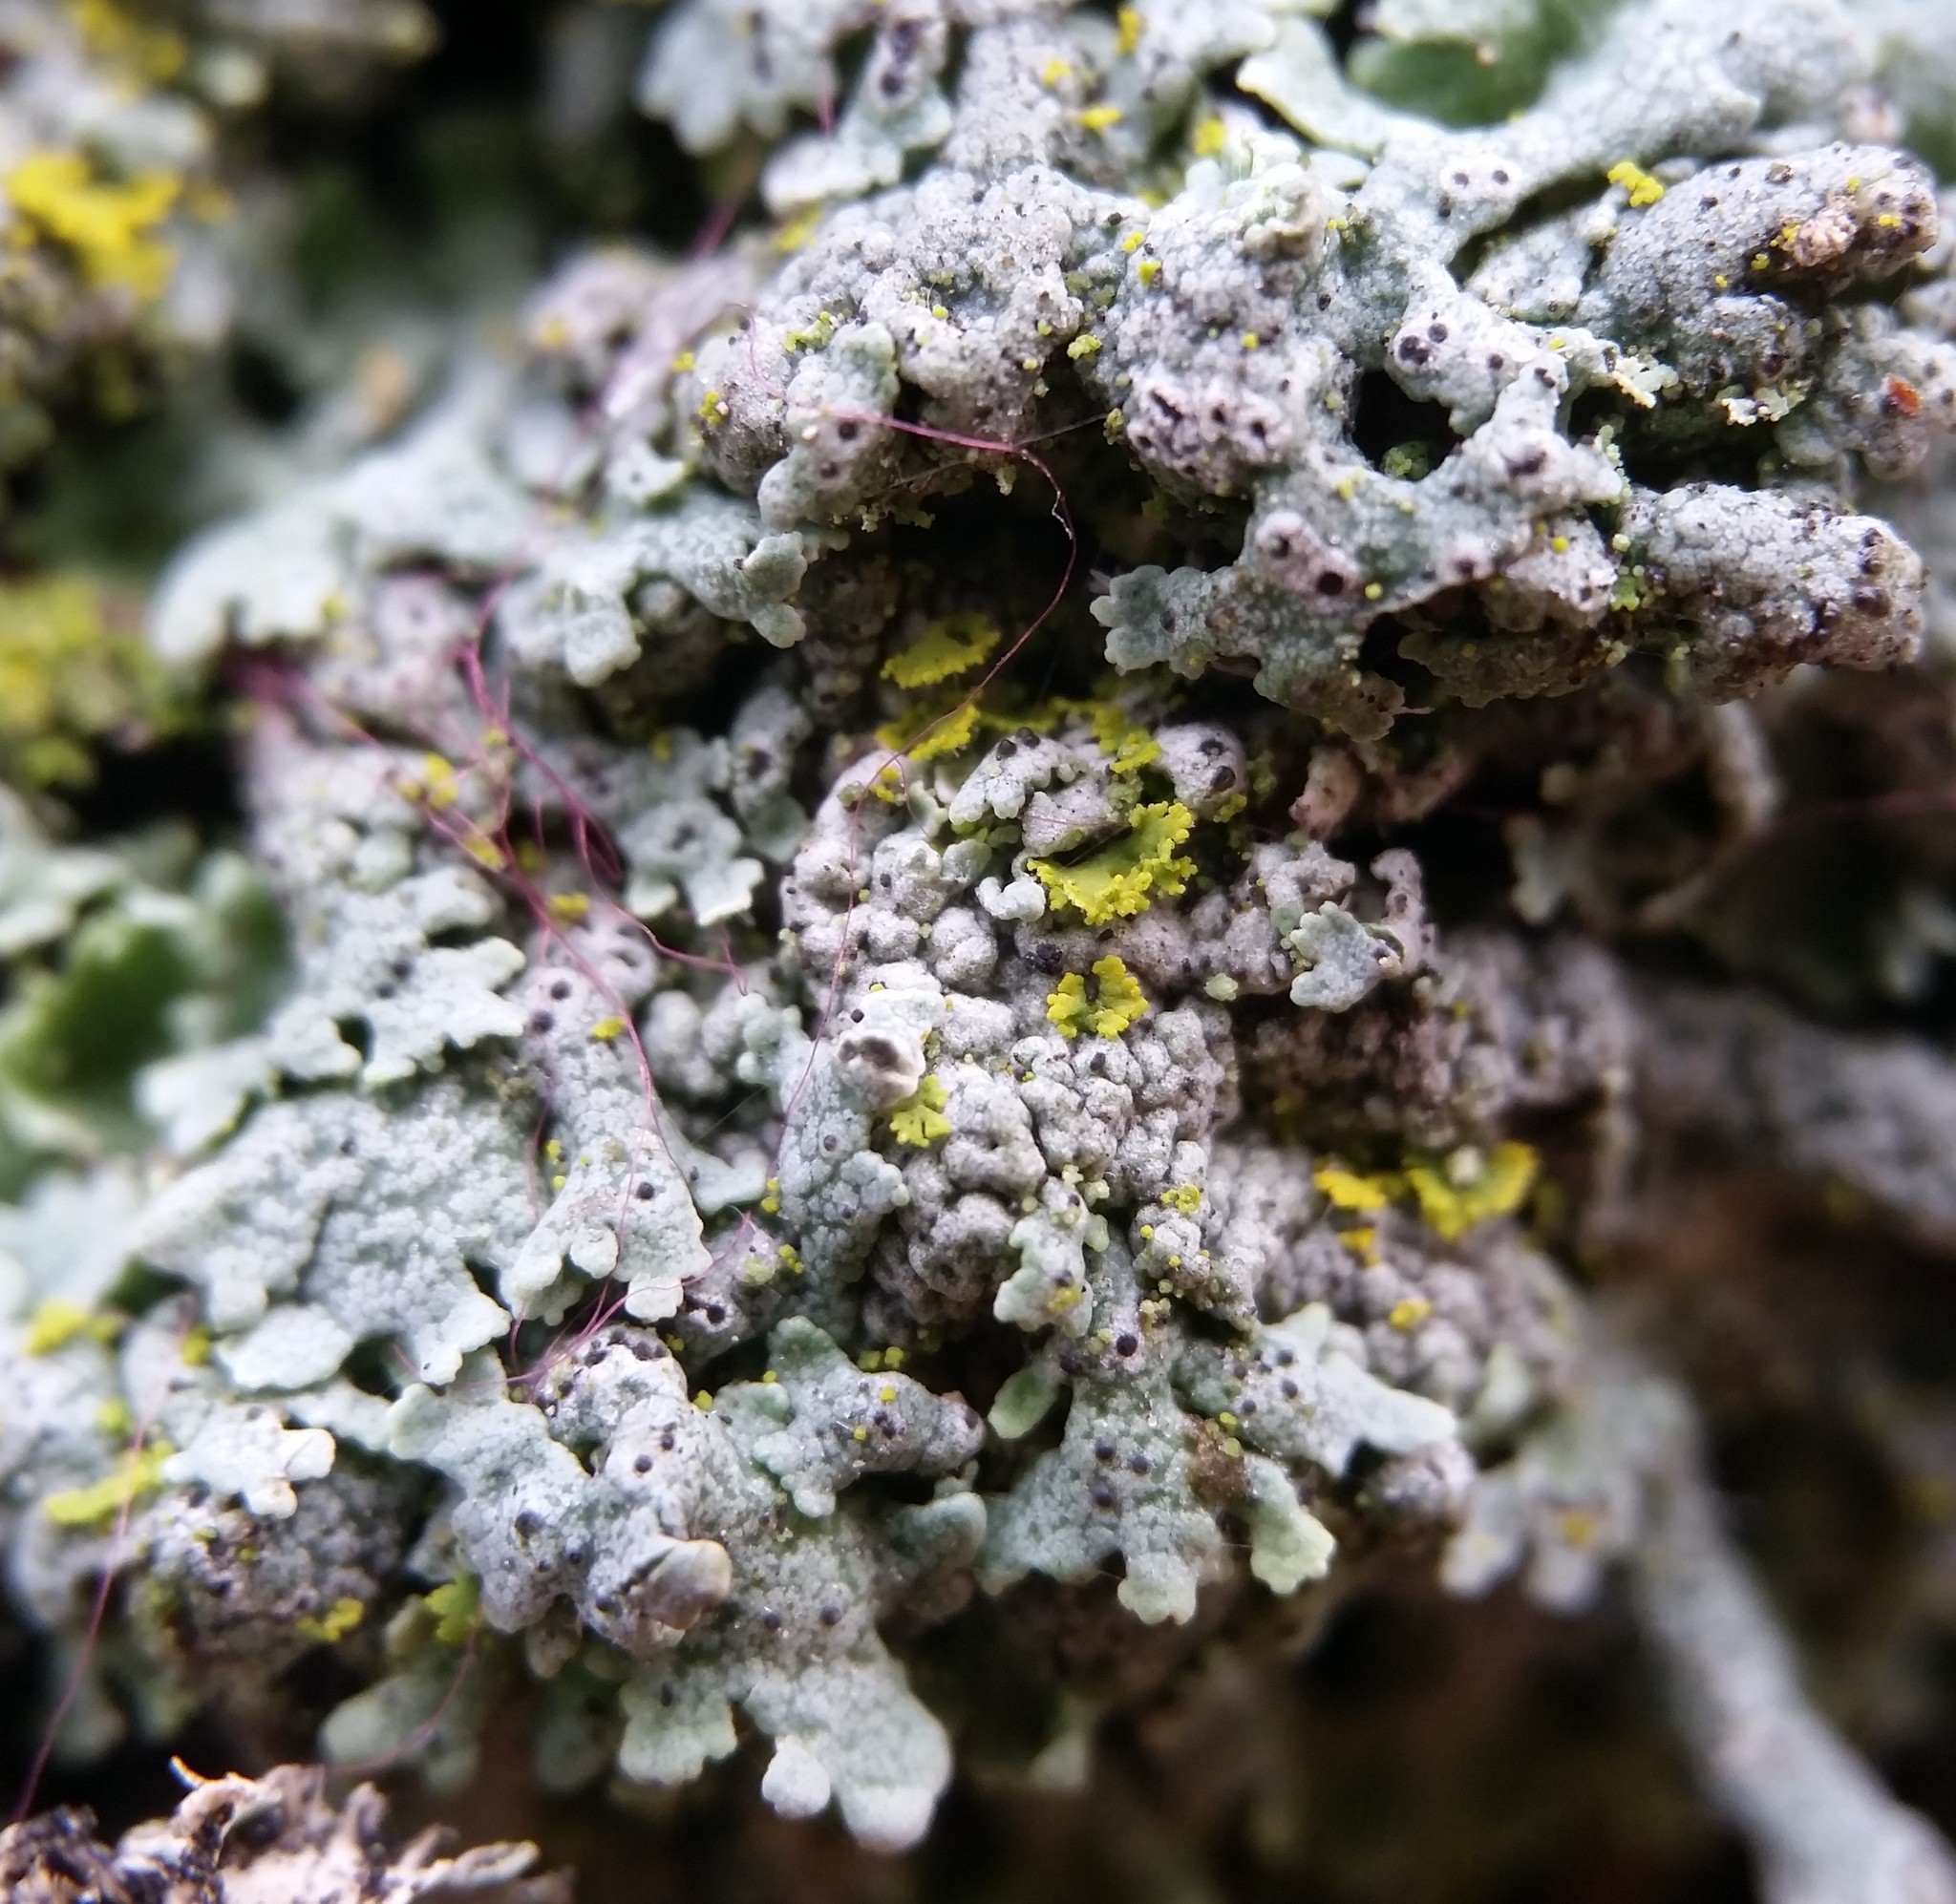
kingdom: Fungi
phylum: Ascomycota
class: Lecanoromycetes
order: Caliciales
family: Physciaceae
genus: Physcia
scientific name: Physcia stellaris
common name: Star rosette lichen
